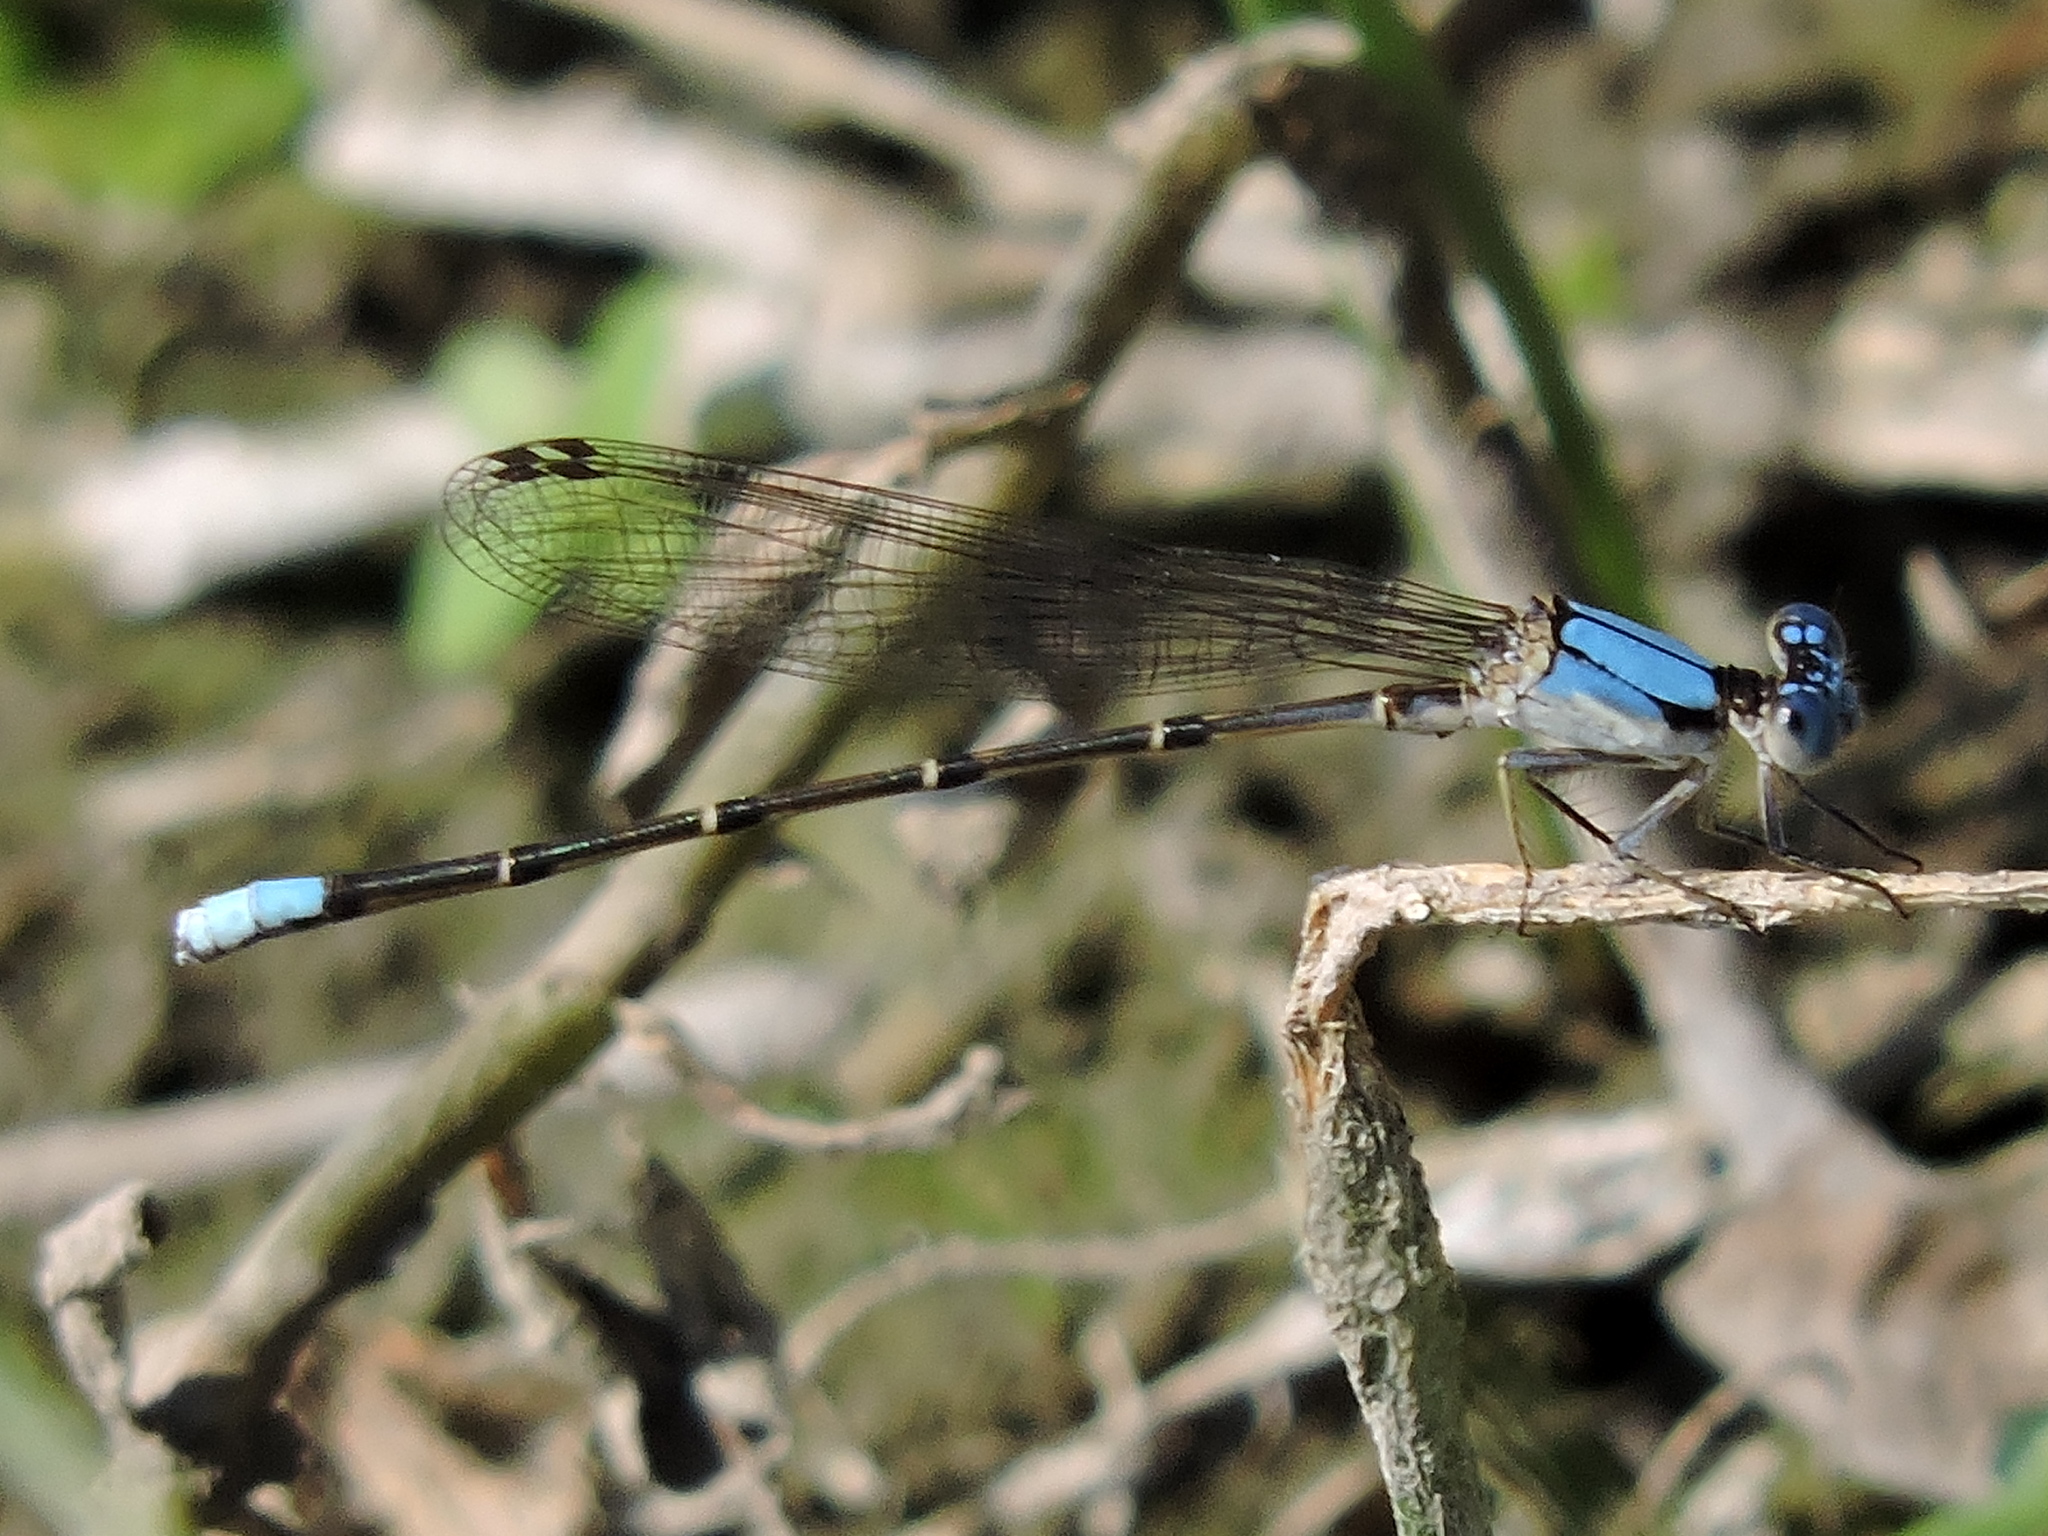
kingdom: Animalia
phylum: Arthropoda
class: Insecta
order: Odonata
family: Coenagrionidae
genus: Argia
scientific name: Argia apicalis
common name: Blue-fronted dancer
